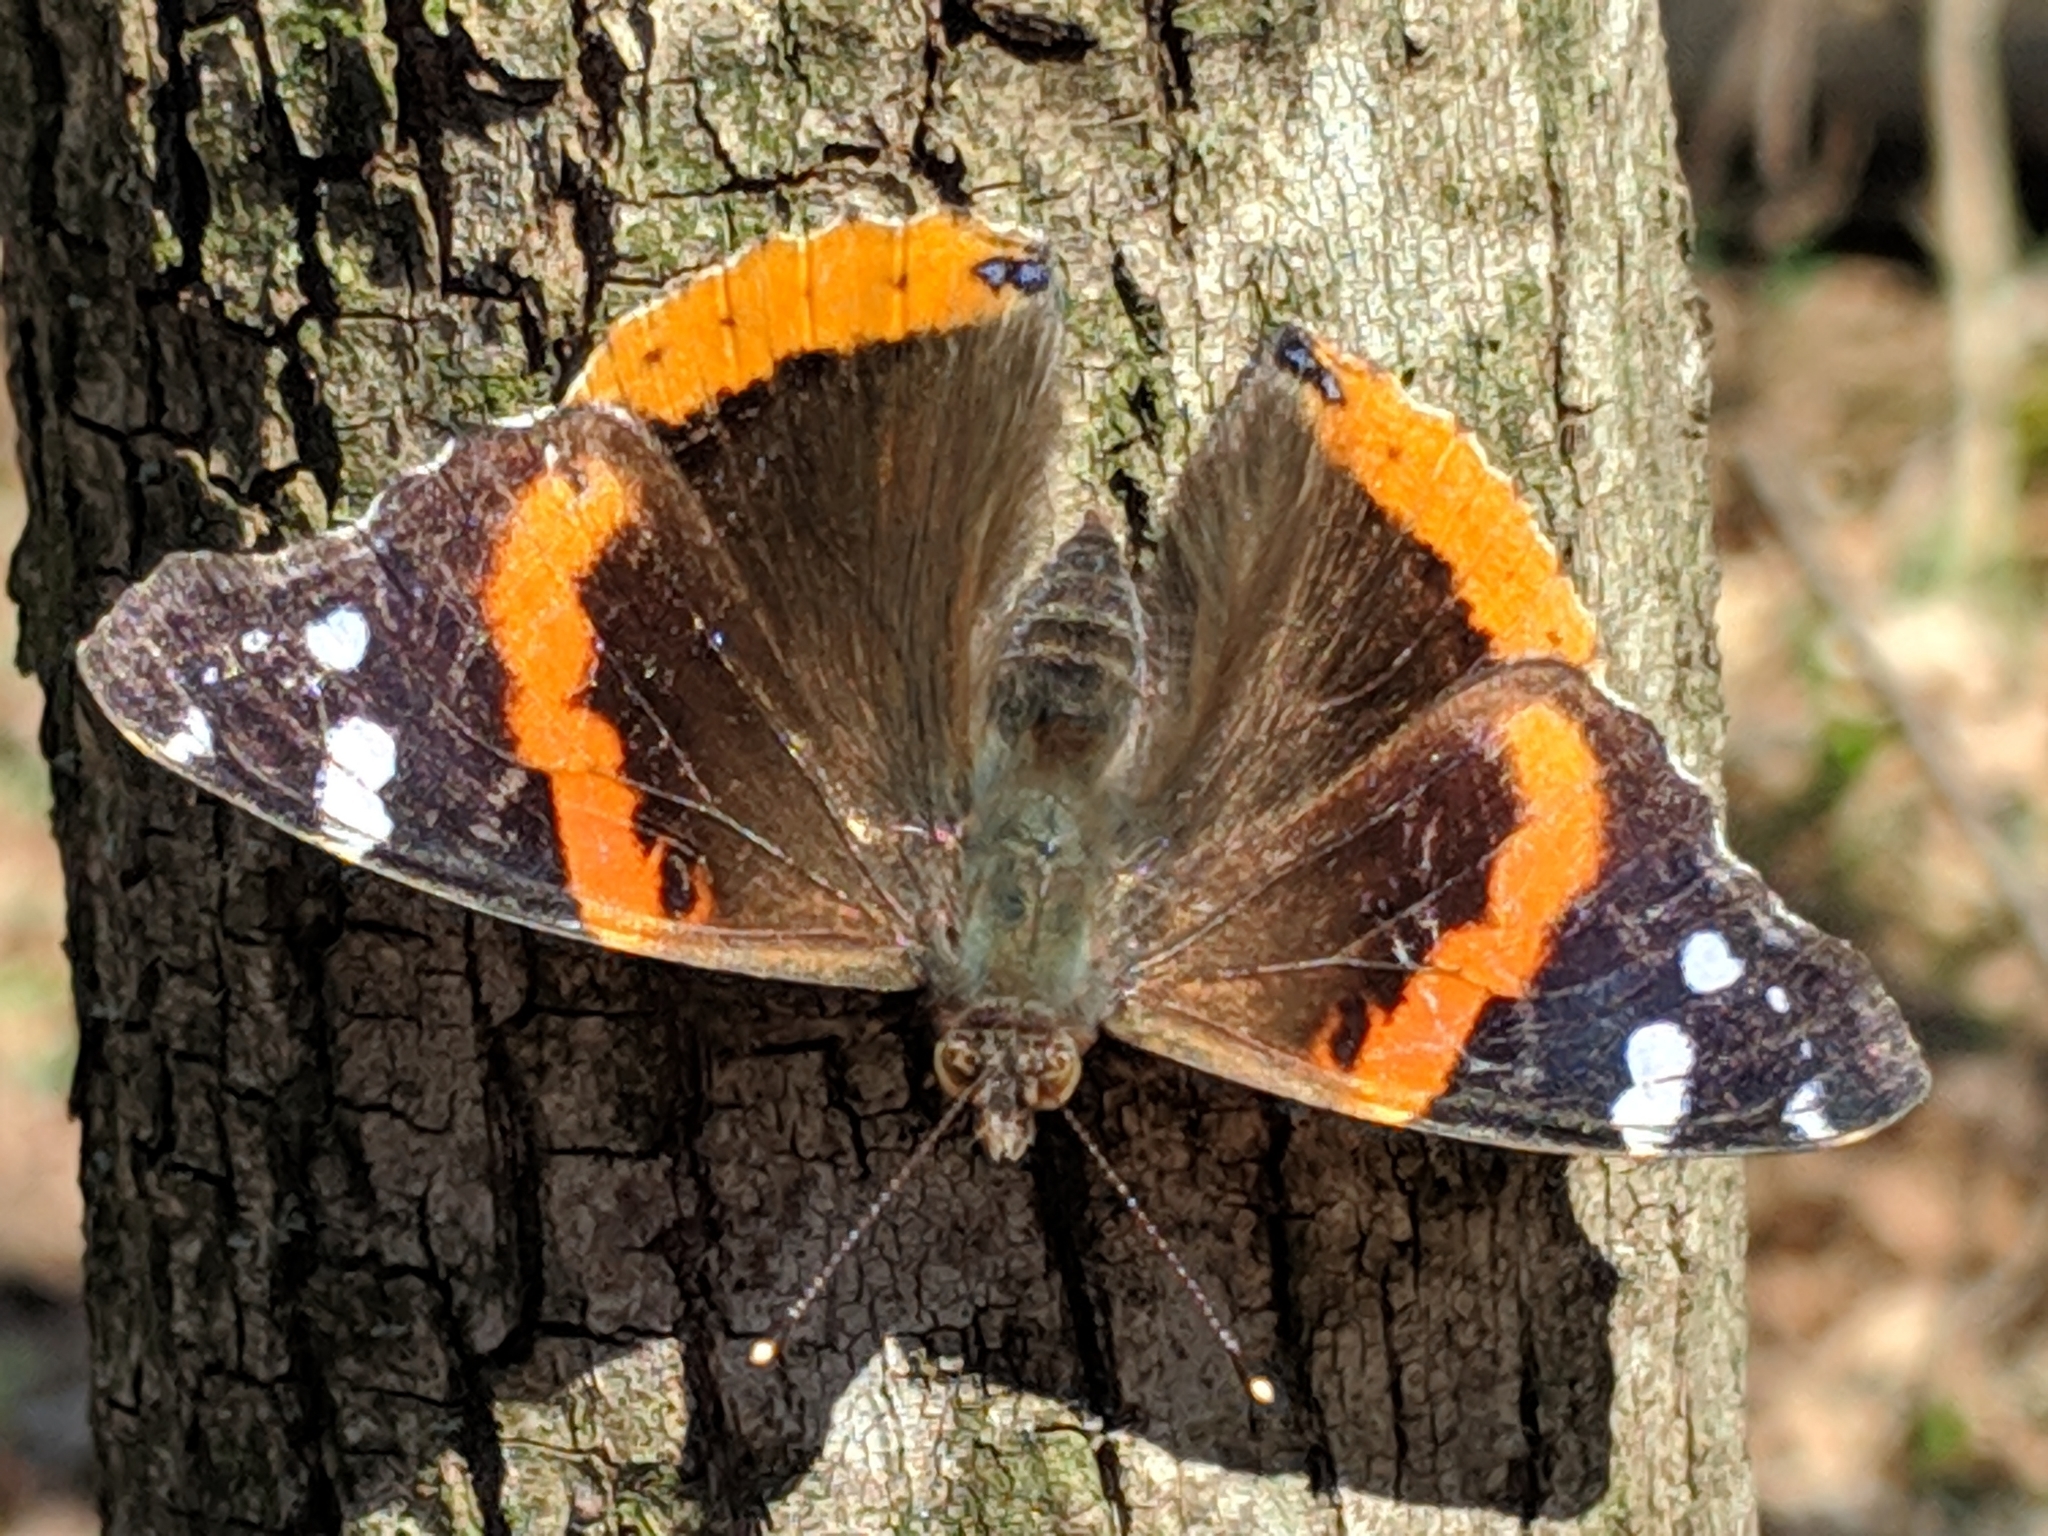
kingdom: Animalia
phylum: Arthropoda
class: Insecta
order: Lepidoptera
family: Nymphalidae
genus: Vanessa
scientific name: Vanessa atalanta
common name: Red admiral
